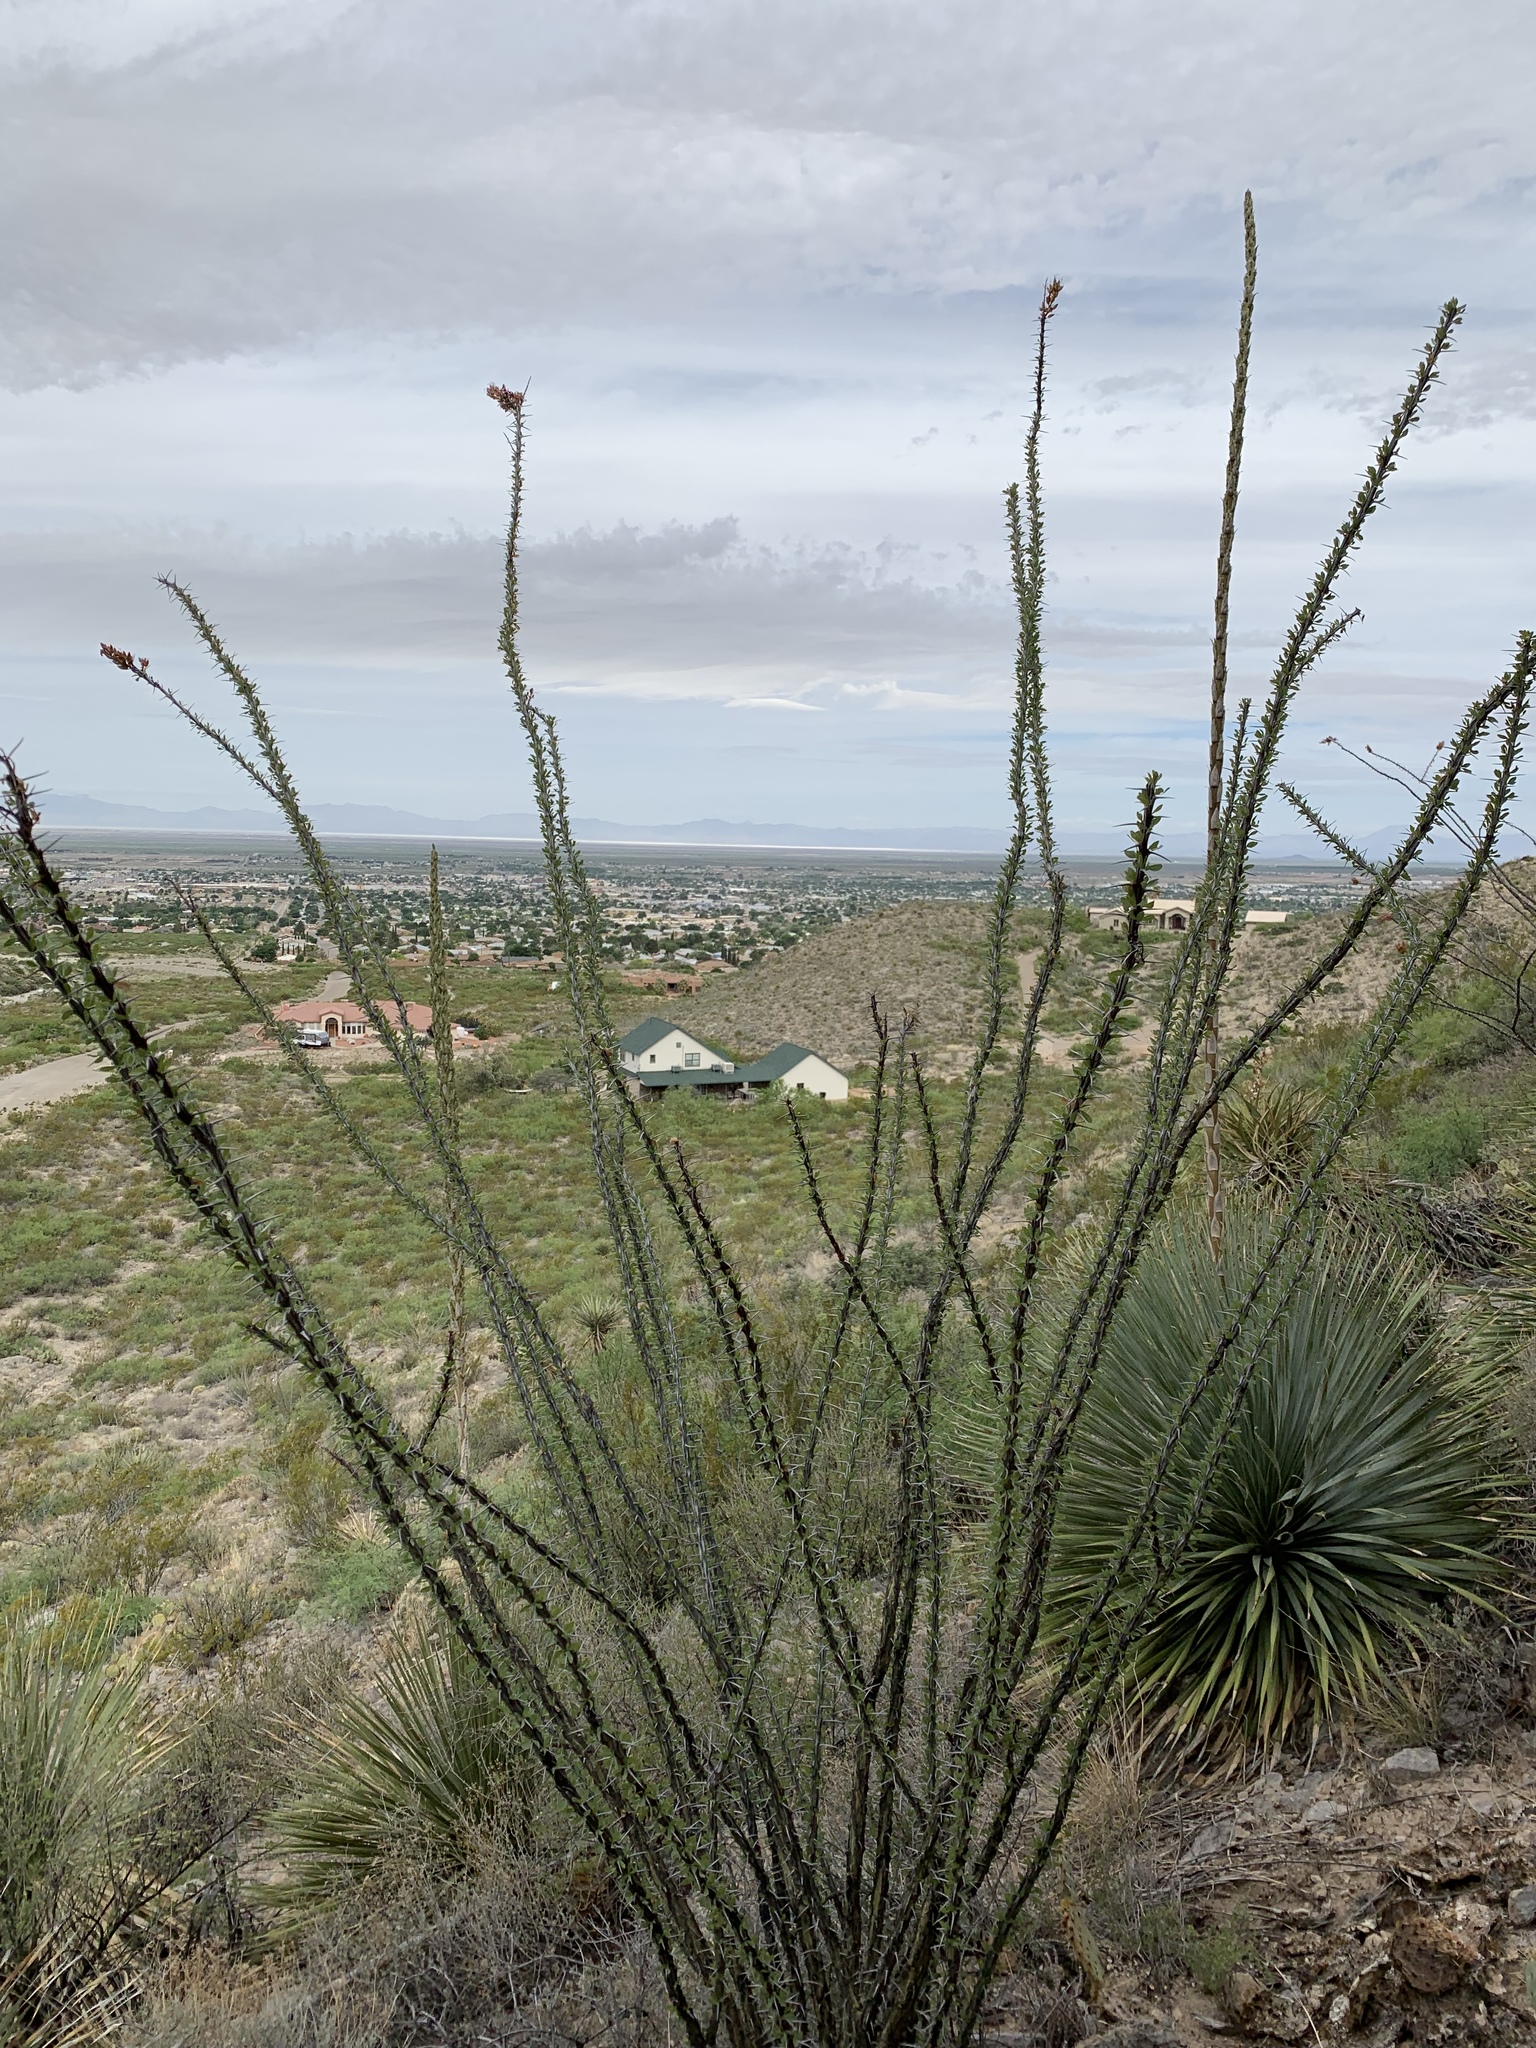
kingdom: Plantae
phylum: Tracheophyta
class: Magnoliopsida
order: Ericales
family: Fouquieriaceae
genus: Fouquieria
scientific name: Fouquieria splendens
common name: Vine-cactus
